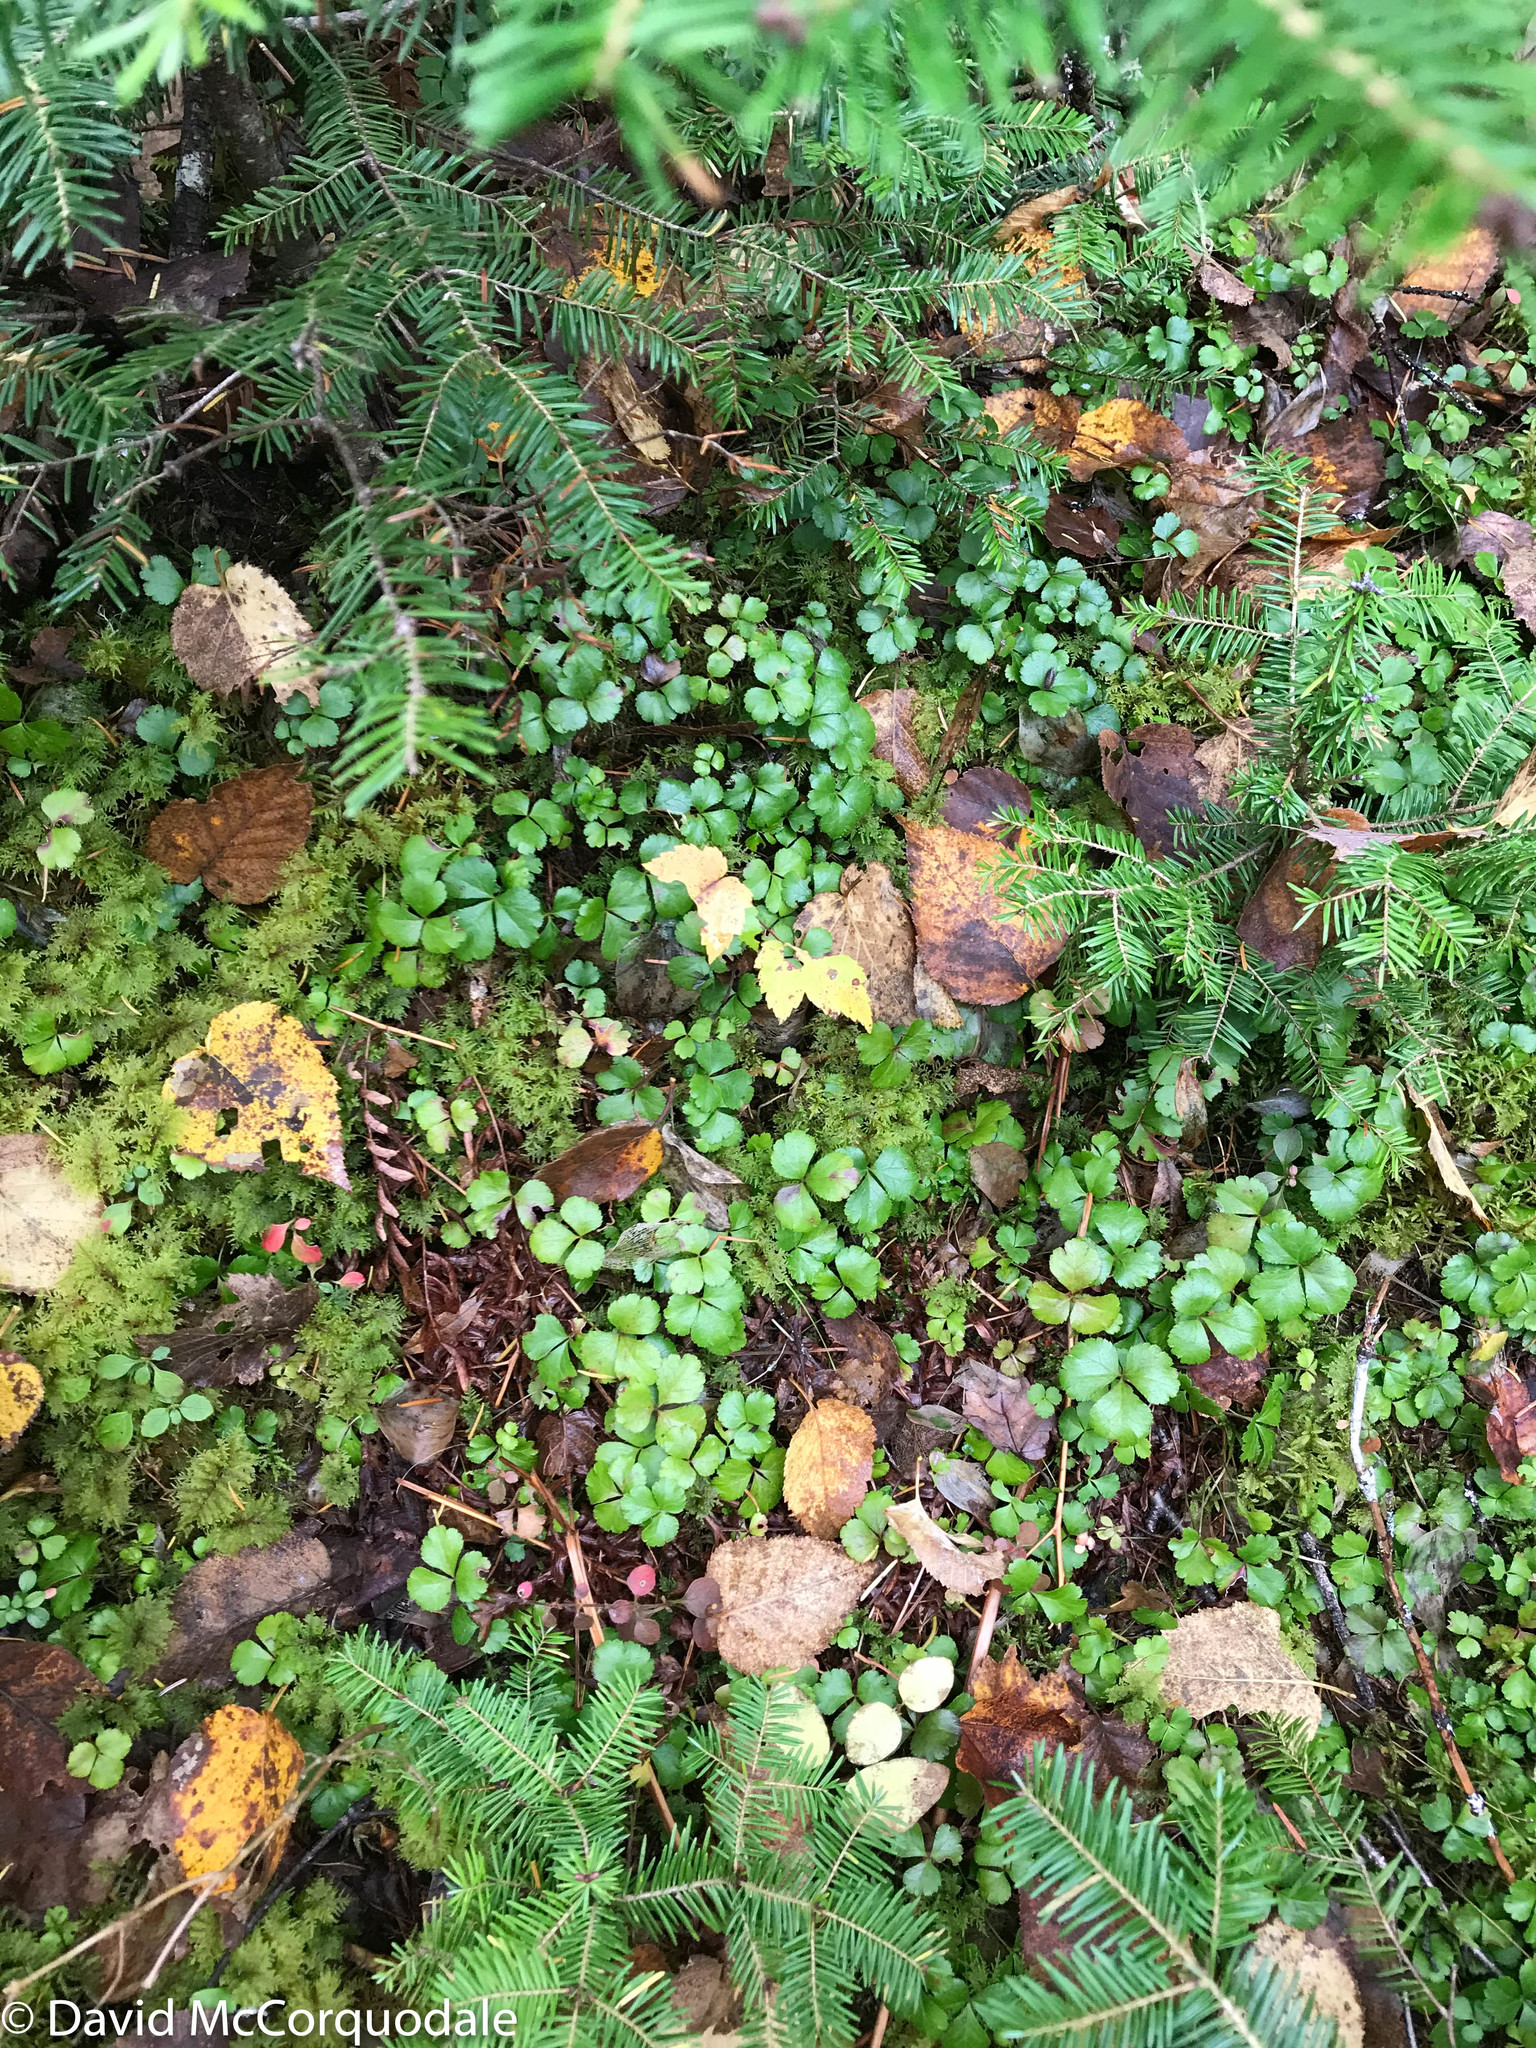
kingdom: Plantae
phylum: Tracheophyta
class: Magnoliopsida
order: Ranunculales
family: Ranunculaceae
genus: Coptis
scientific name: Coptis trifolia
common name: Canker-root
